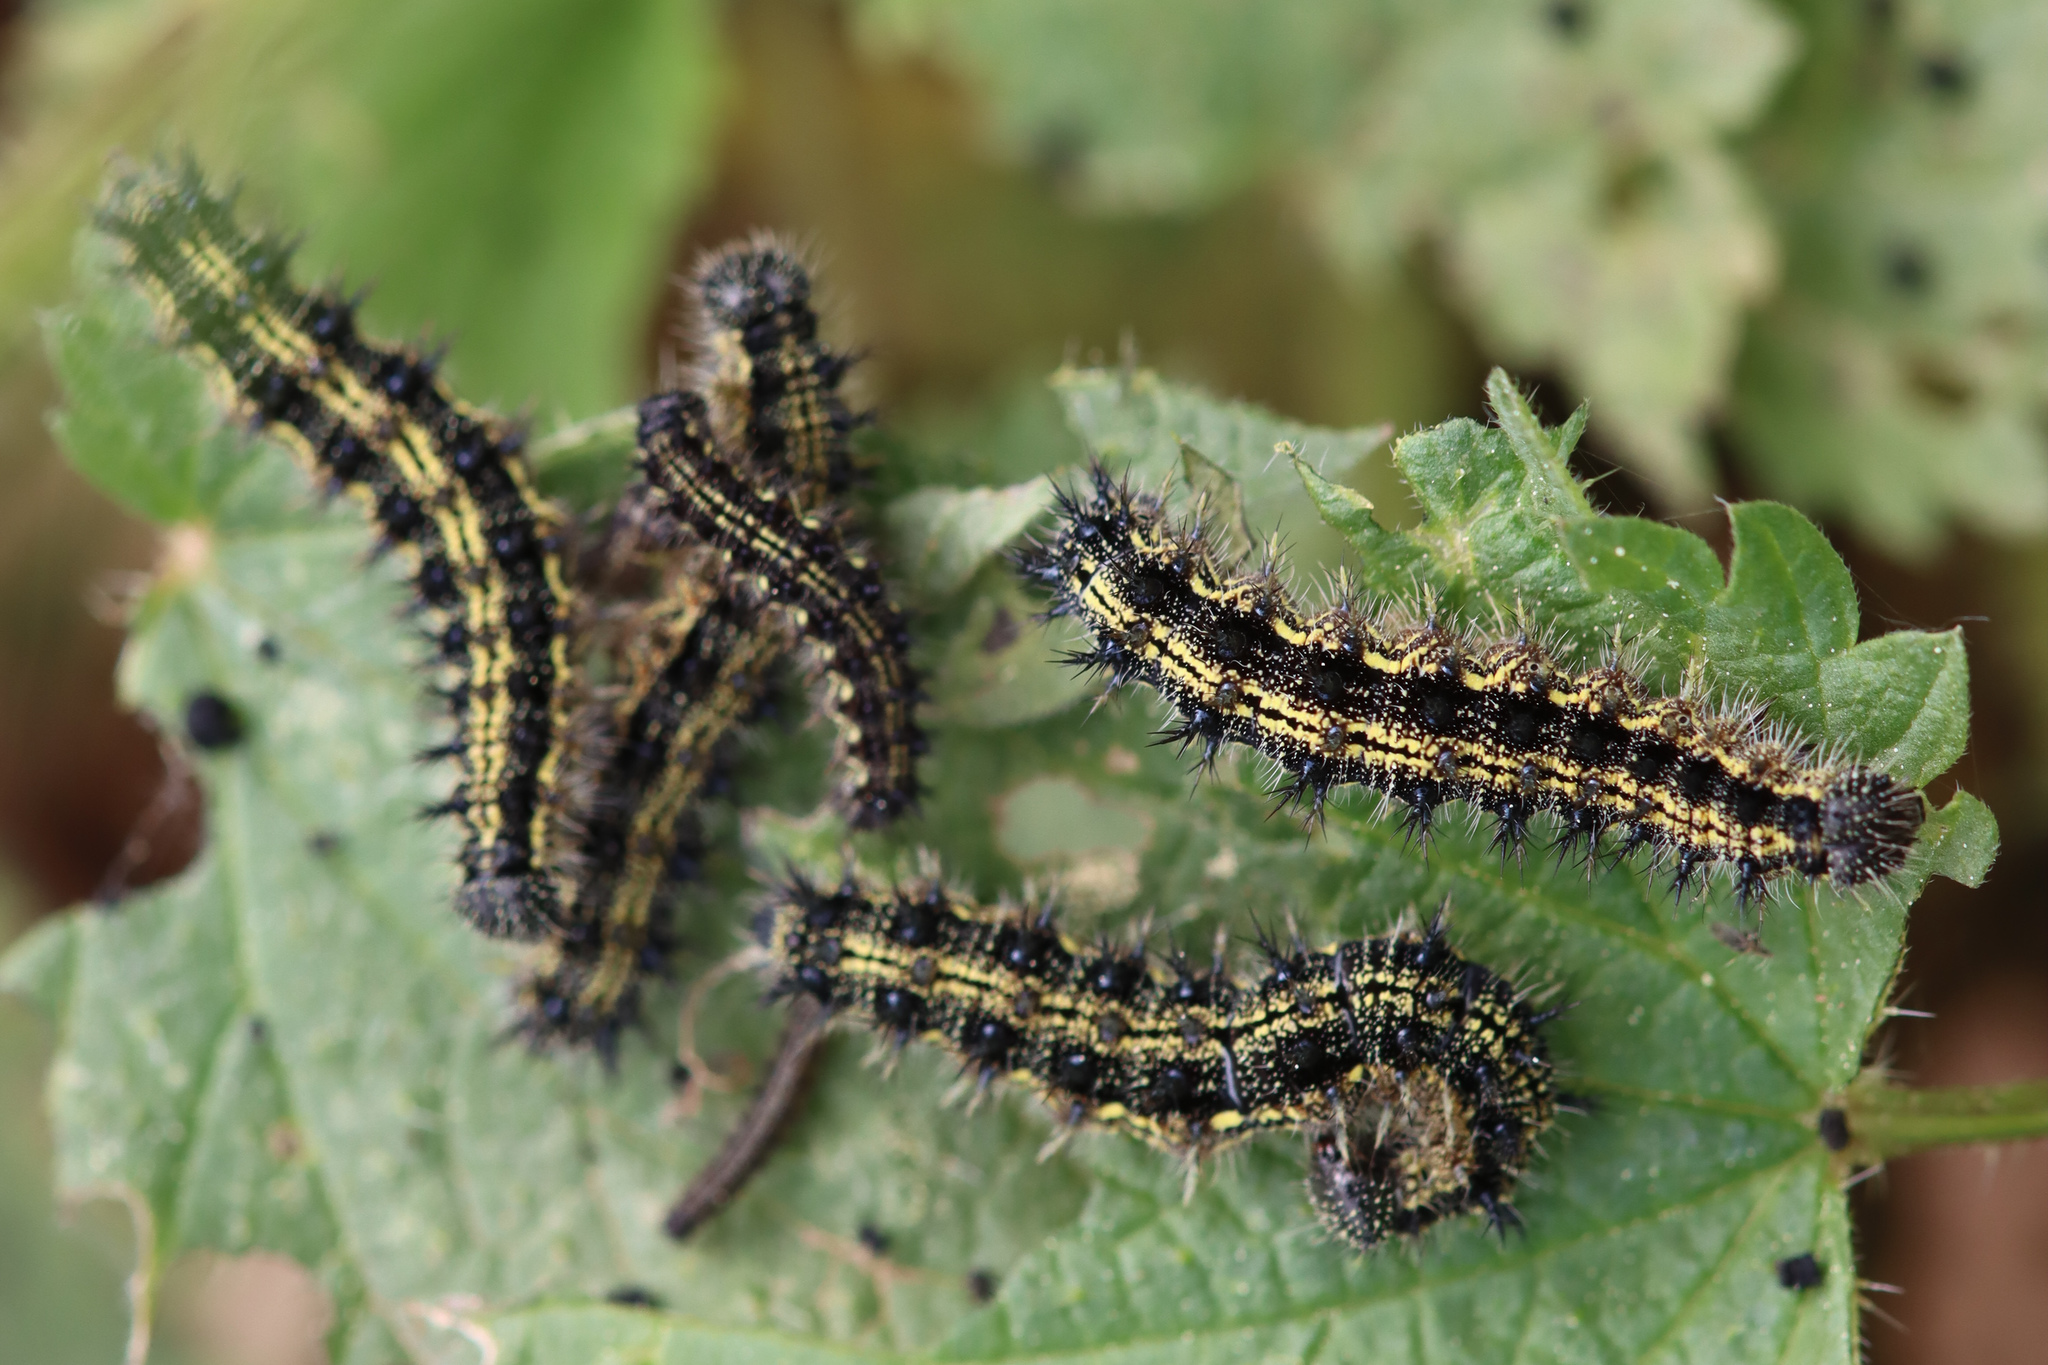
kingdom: Animalia
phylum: Arthropoda
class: Insecta
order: Lepidoptera
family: Nymphalidae
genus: Aglais
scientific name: Aglais urticae
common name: Small tortoiseshell
